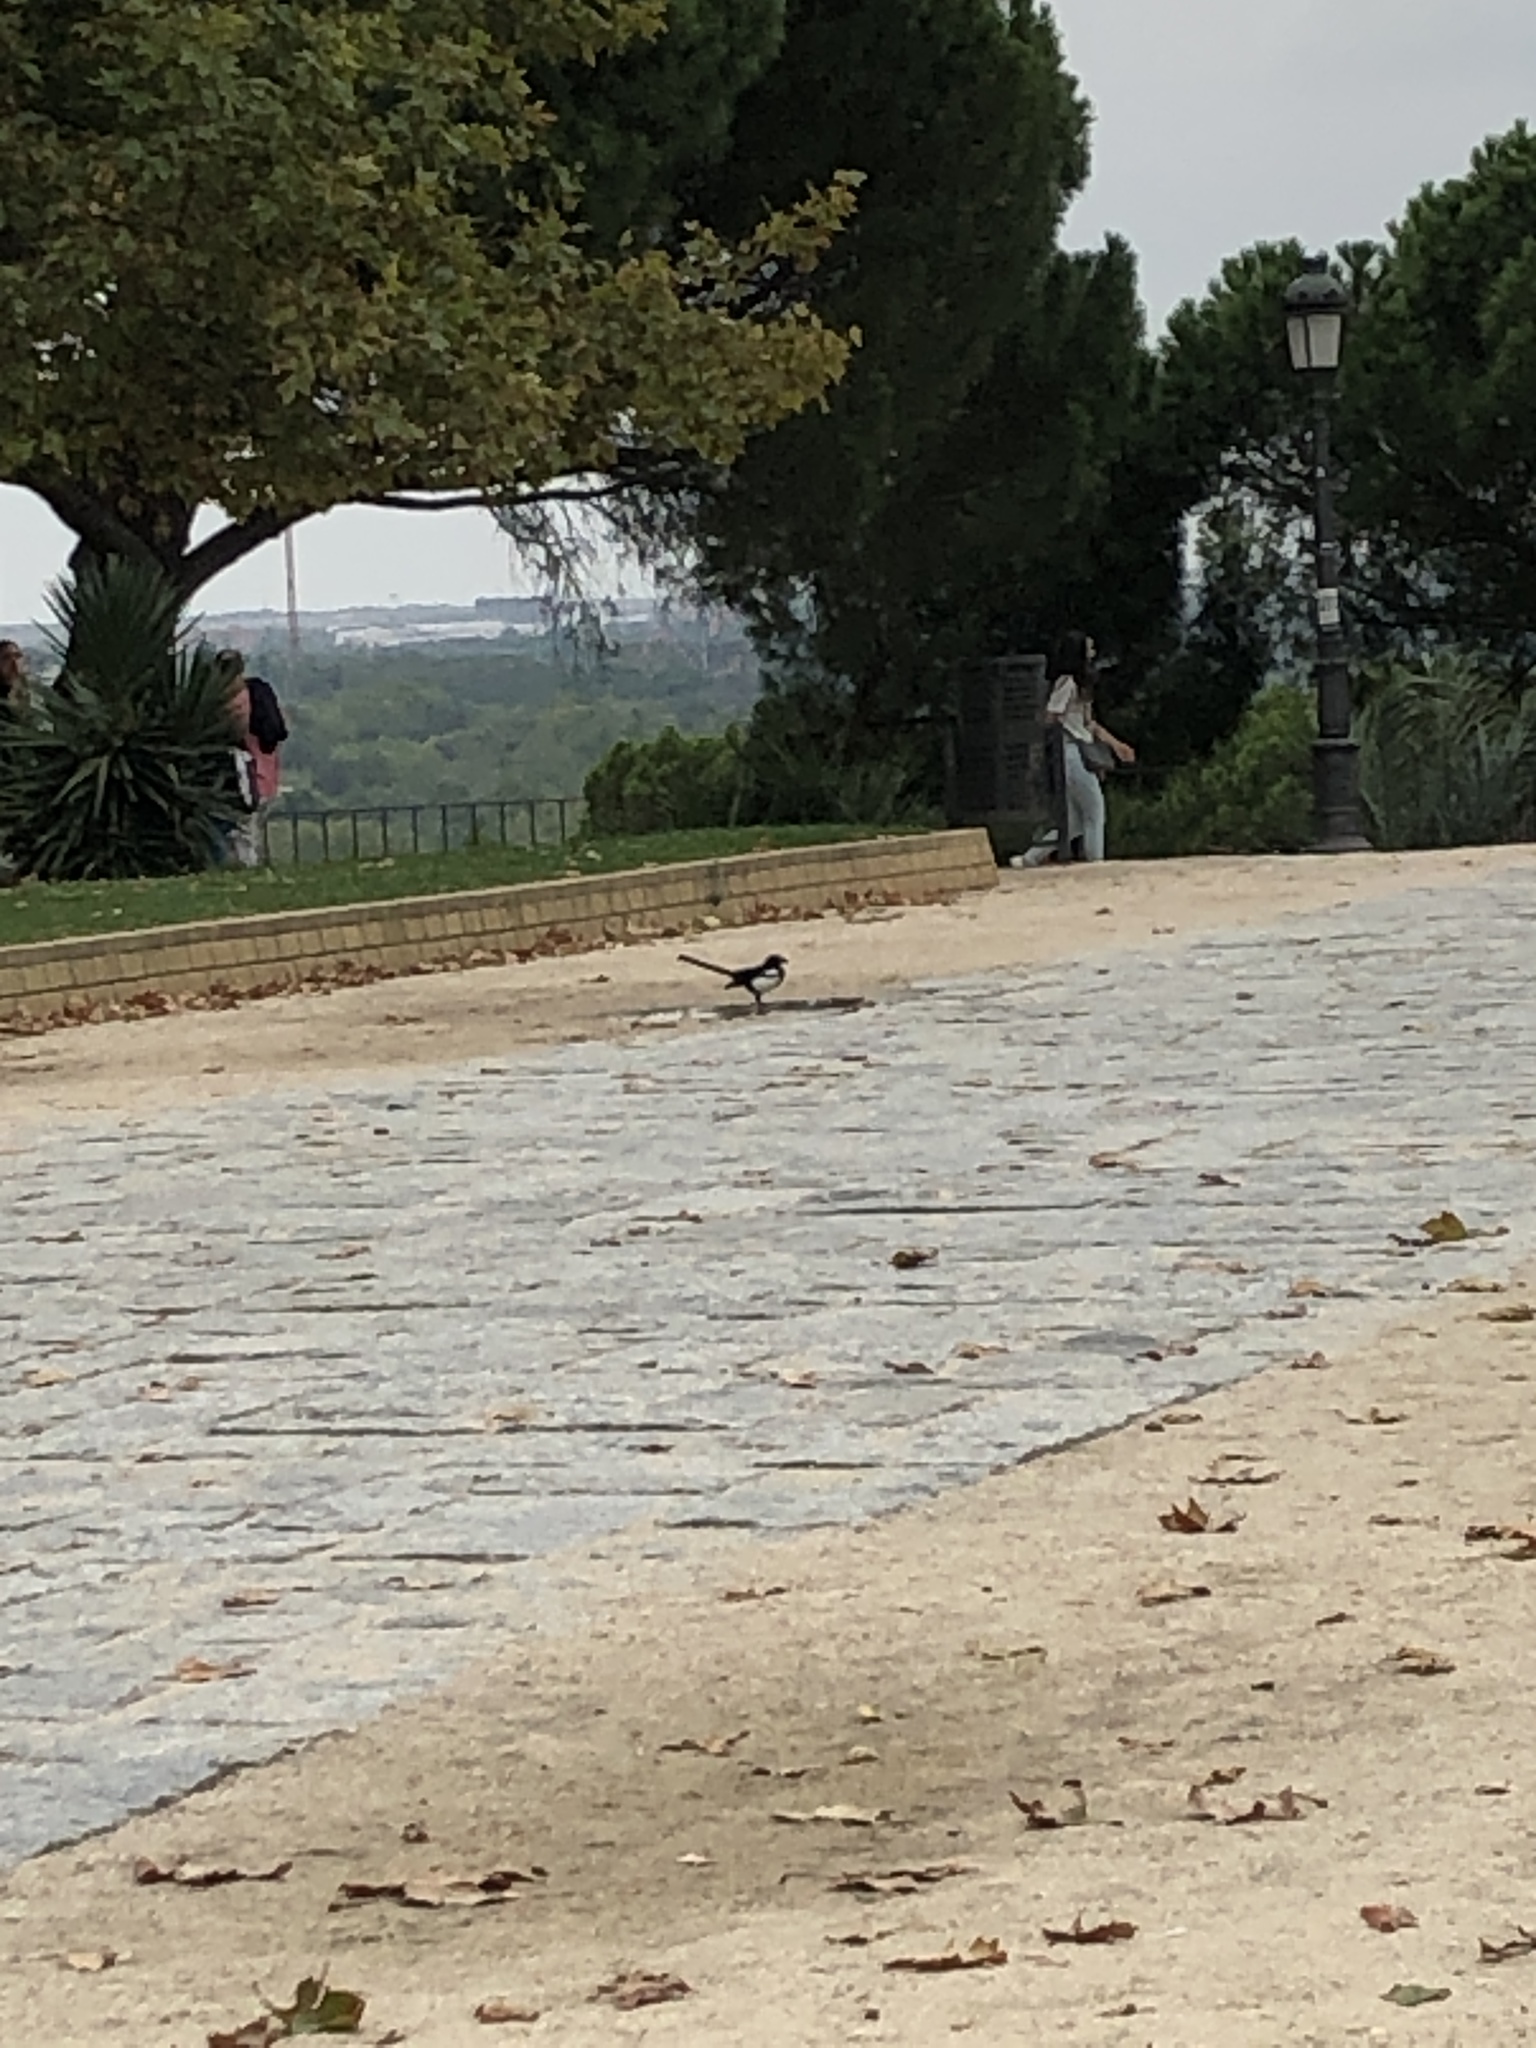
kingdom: Animalia
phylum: Chordata
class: Aves
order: Passeriformes
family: Corvidae
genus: Pica
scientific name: Pica pica
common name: Eurasian magpie
